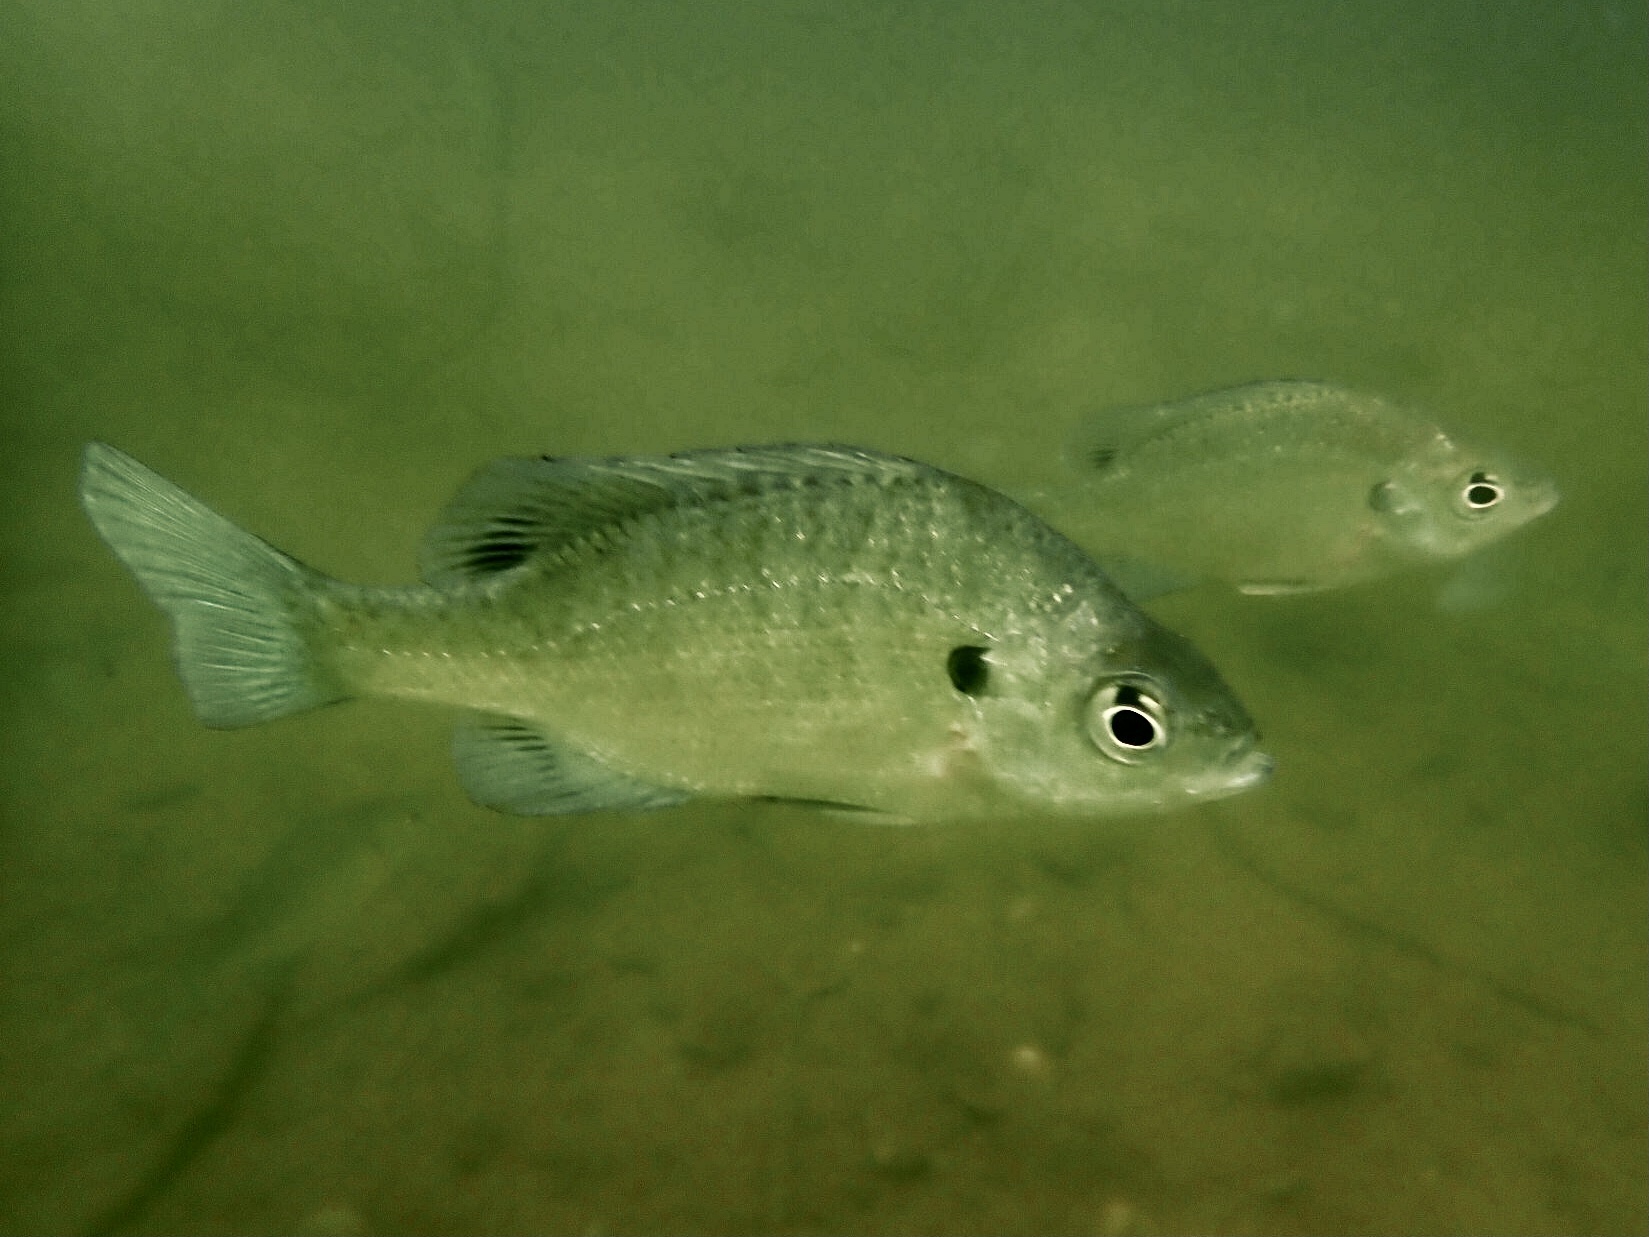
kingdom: Animalia
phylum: Chordata
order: Perciformes
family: Centrarchidae
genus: Lepomis
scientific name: Lepomis macrochirus
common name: Bluegill
